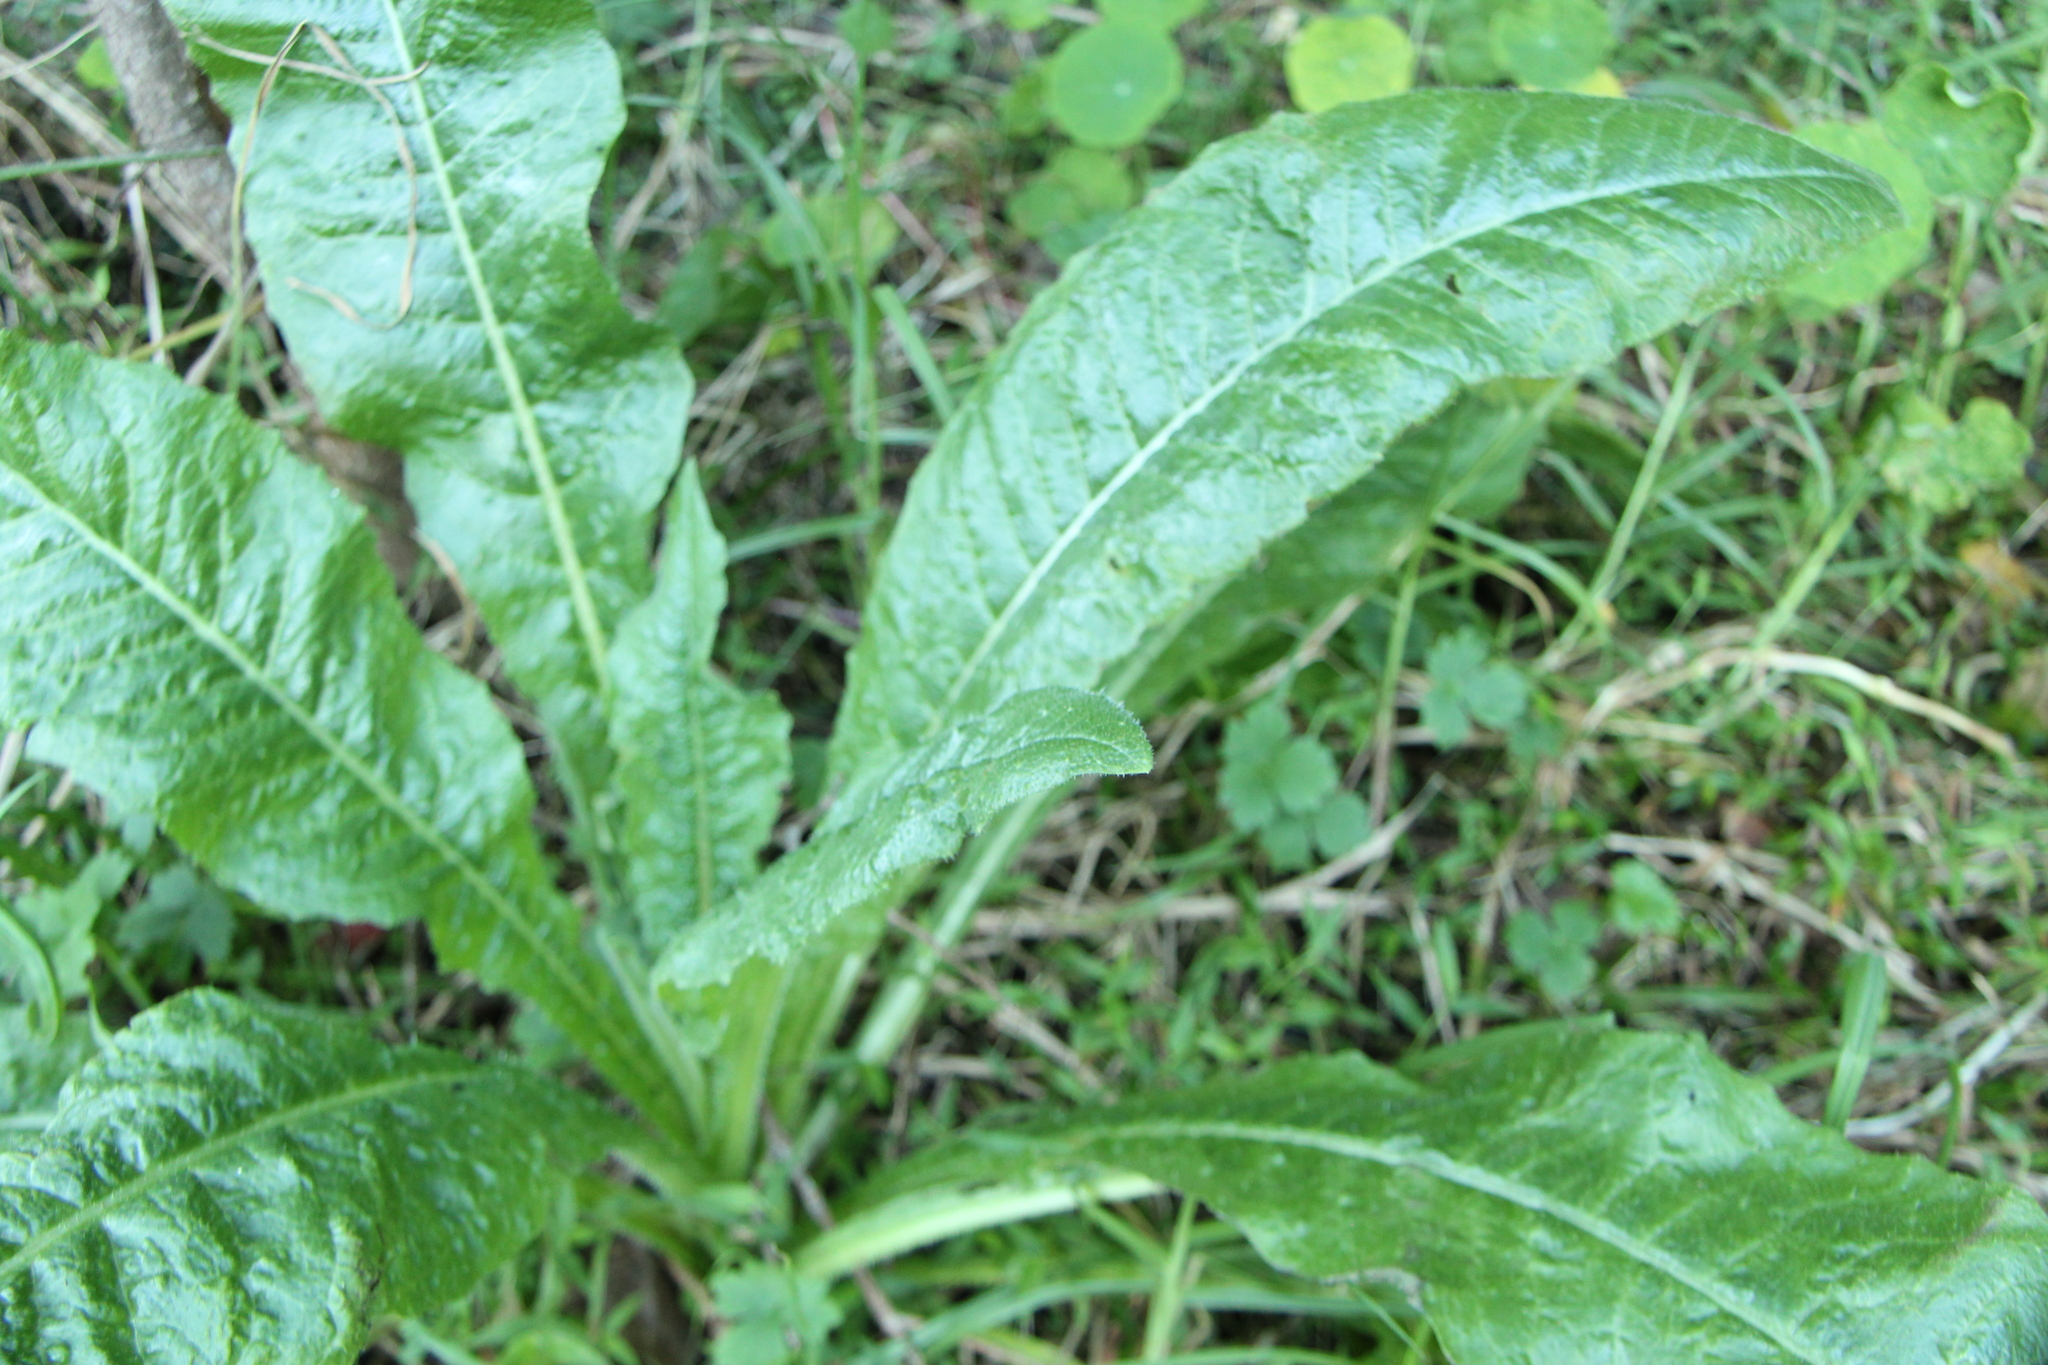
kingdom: Plantae
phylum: Tracheophyta
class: Magnoliopsida
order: Asterales
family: Asteraceae
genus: Helminthotheca
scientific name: Helminthotheca echioides
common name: Ox-tongue
